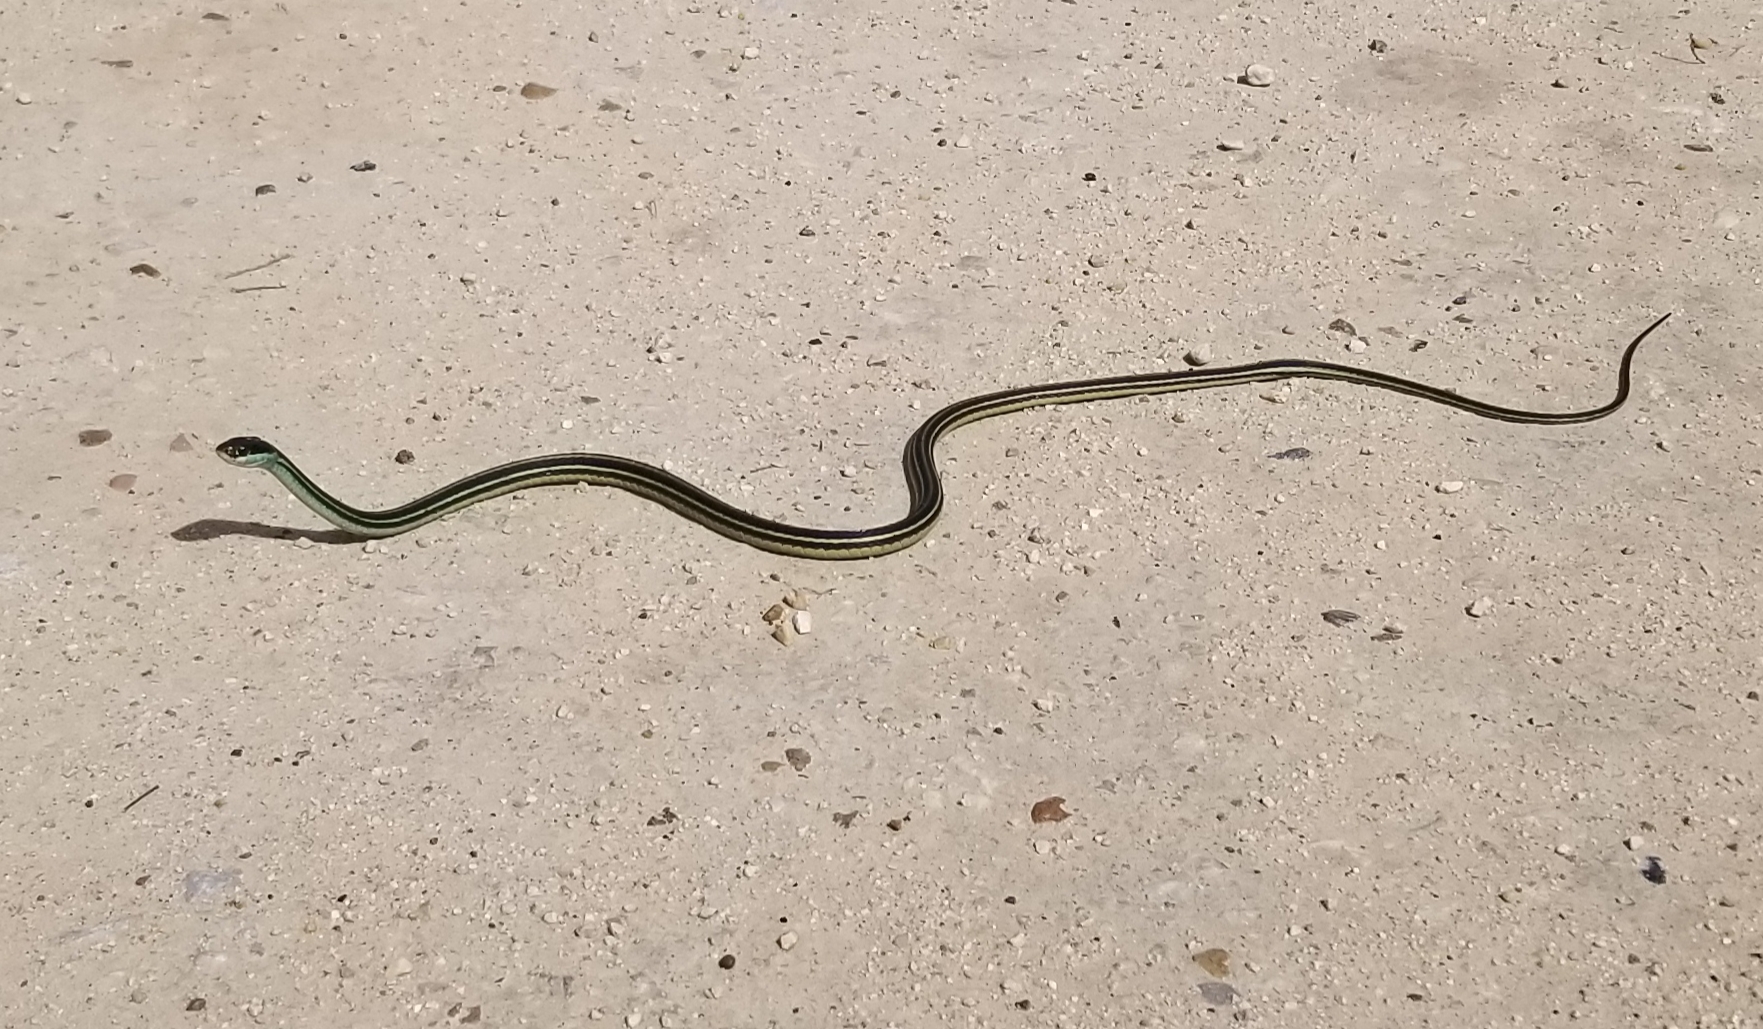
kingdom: Animalia
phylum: Chordata
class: Squamata
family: Colubridae
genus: Thamnophis
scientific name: Thamnophis proximus
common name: Western ribbon snake
